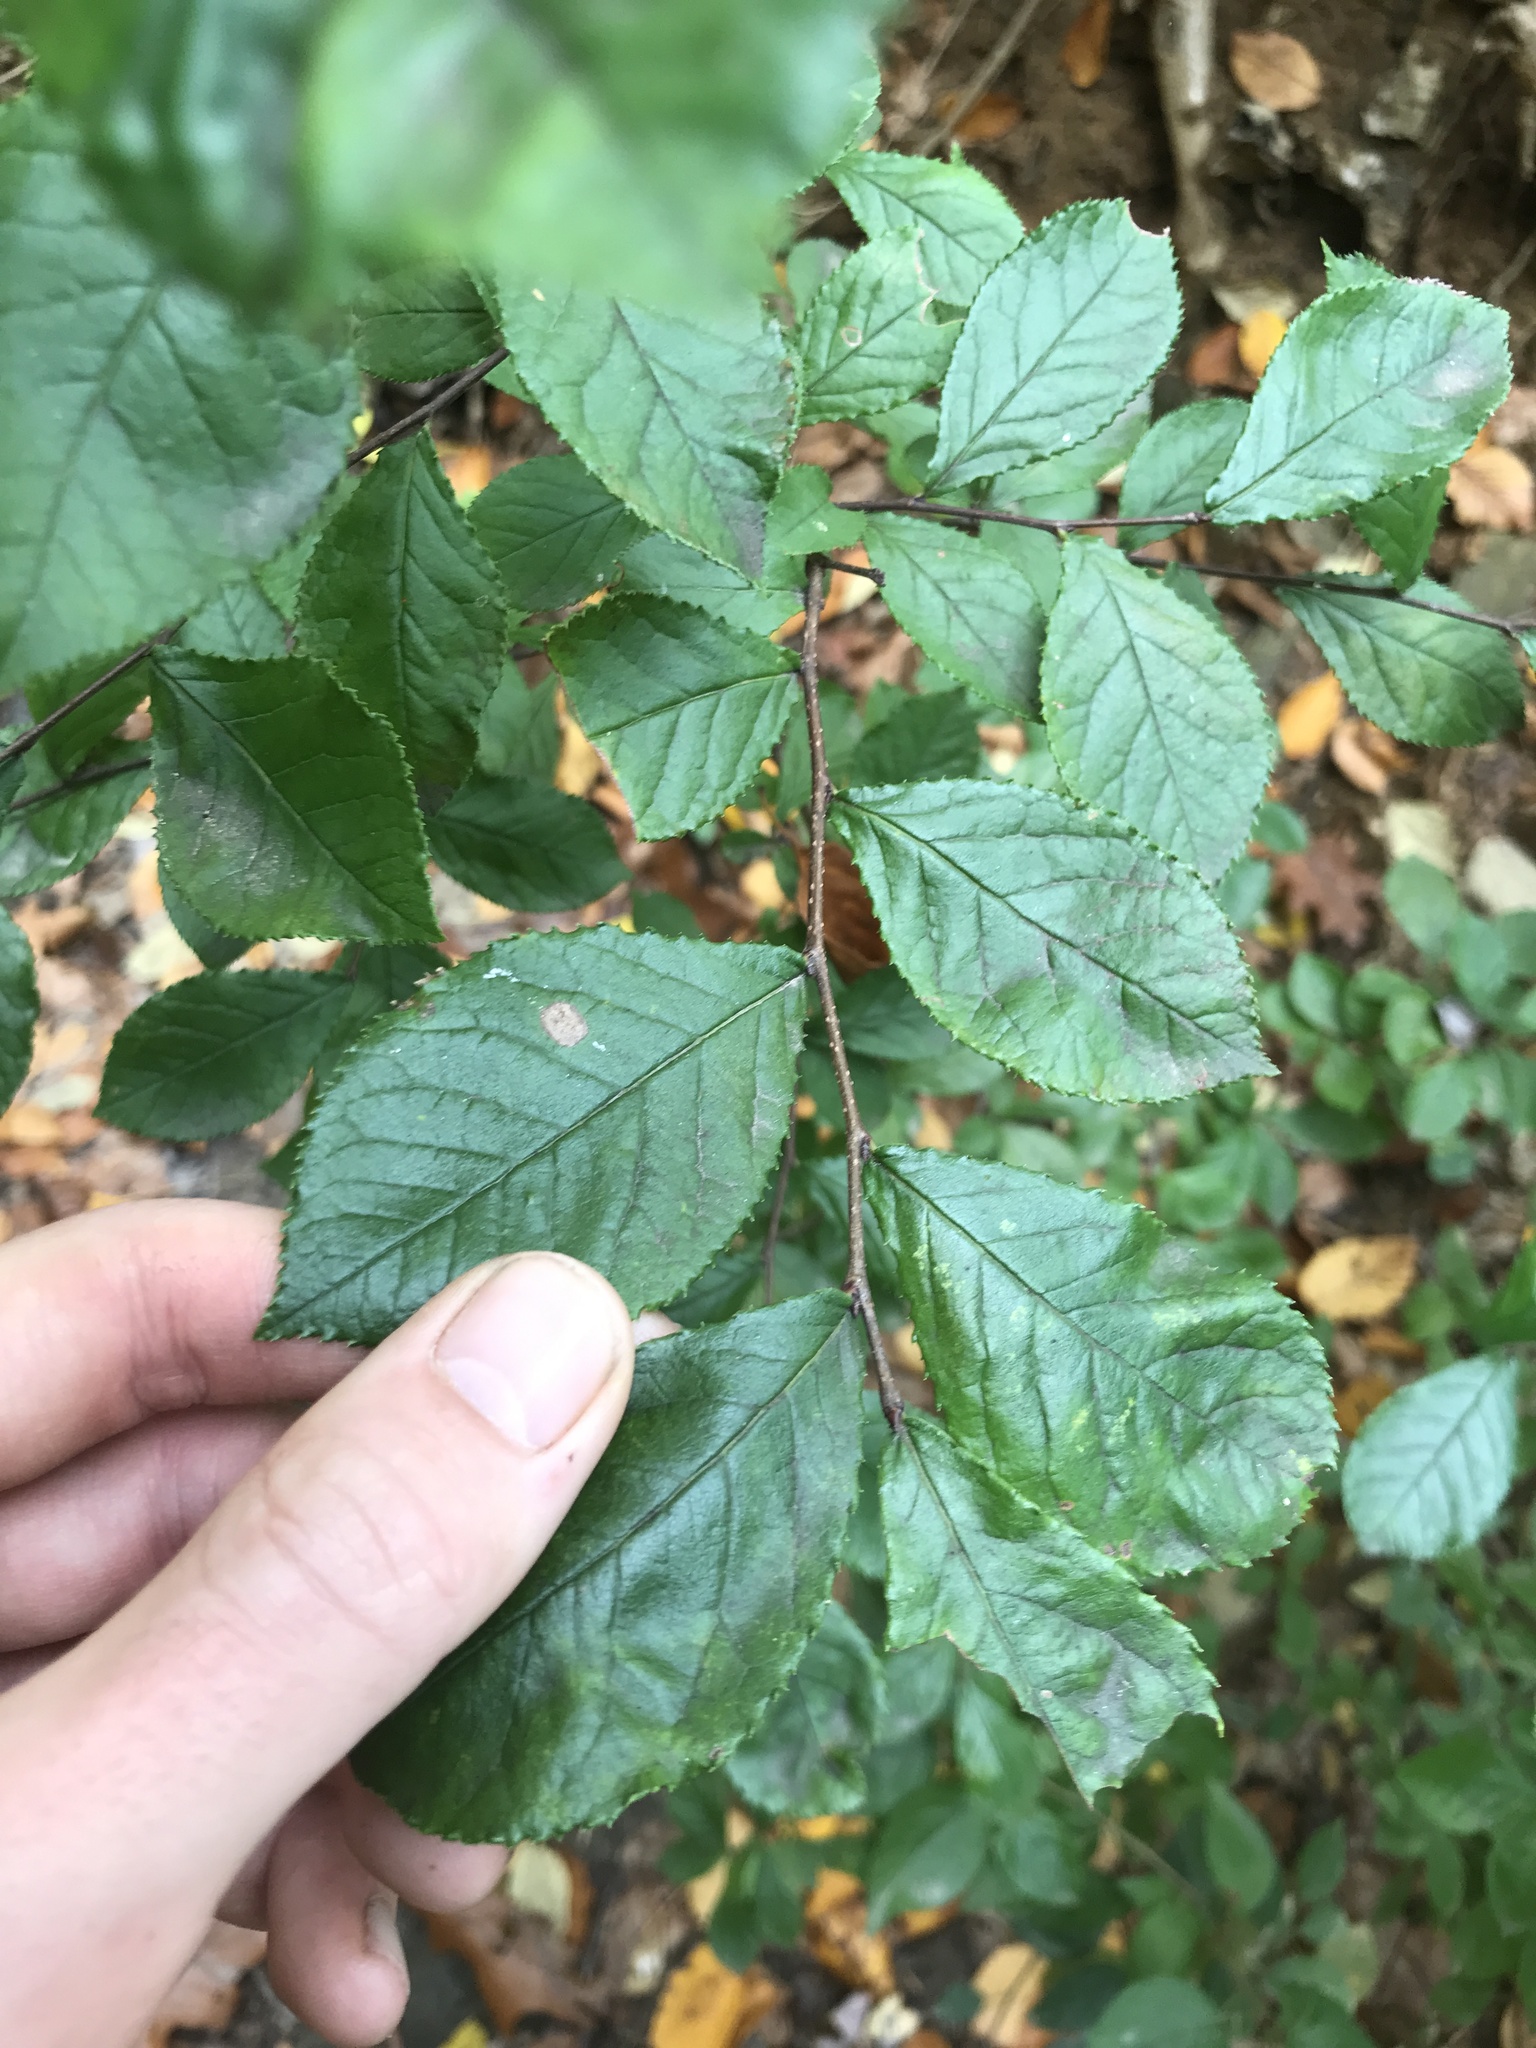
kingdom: Plantae
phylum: Tracheophyta
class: Magnoliopsida
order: Rosales
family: Rosaceae
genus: Pourthiaea
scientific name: Pourthiaea villosa
